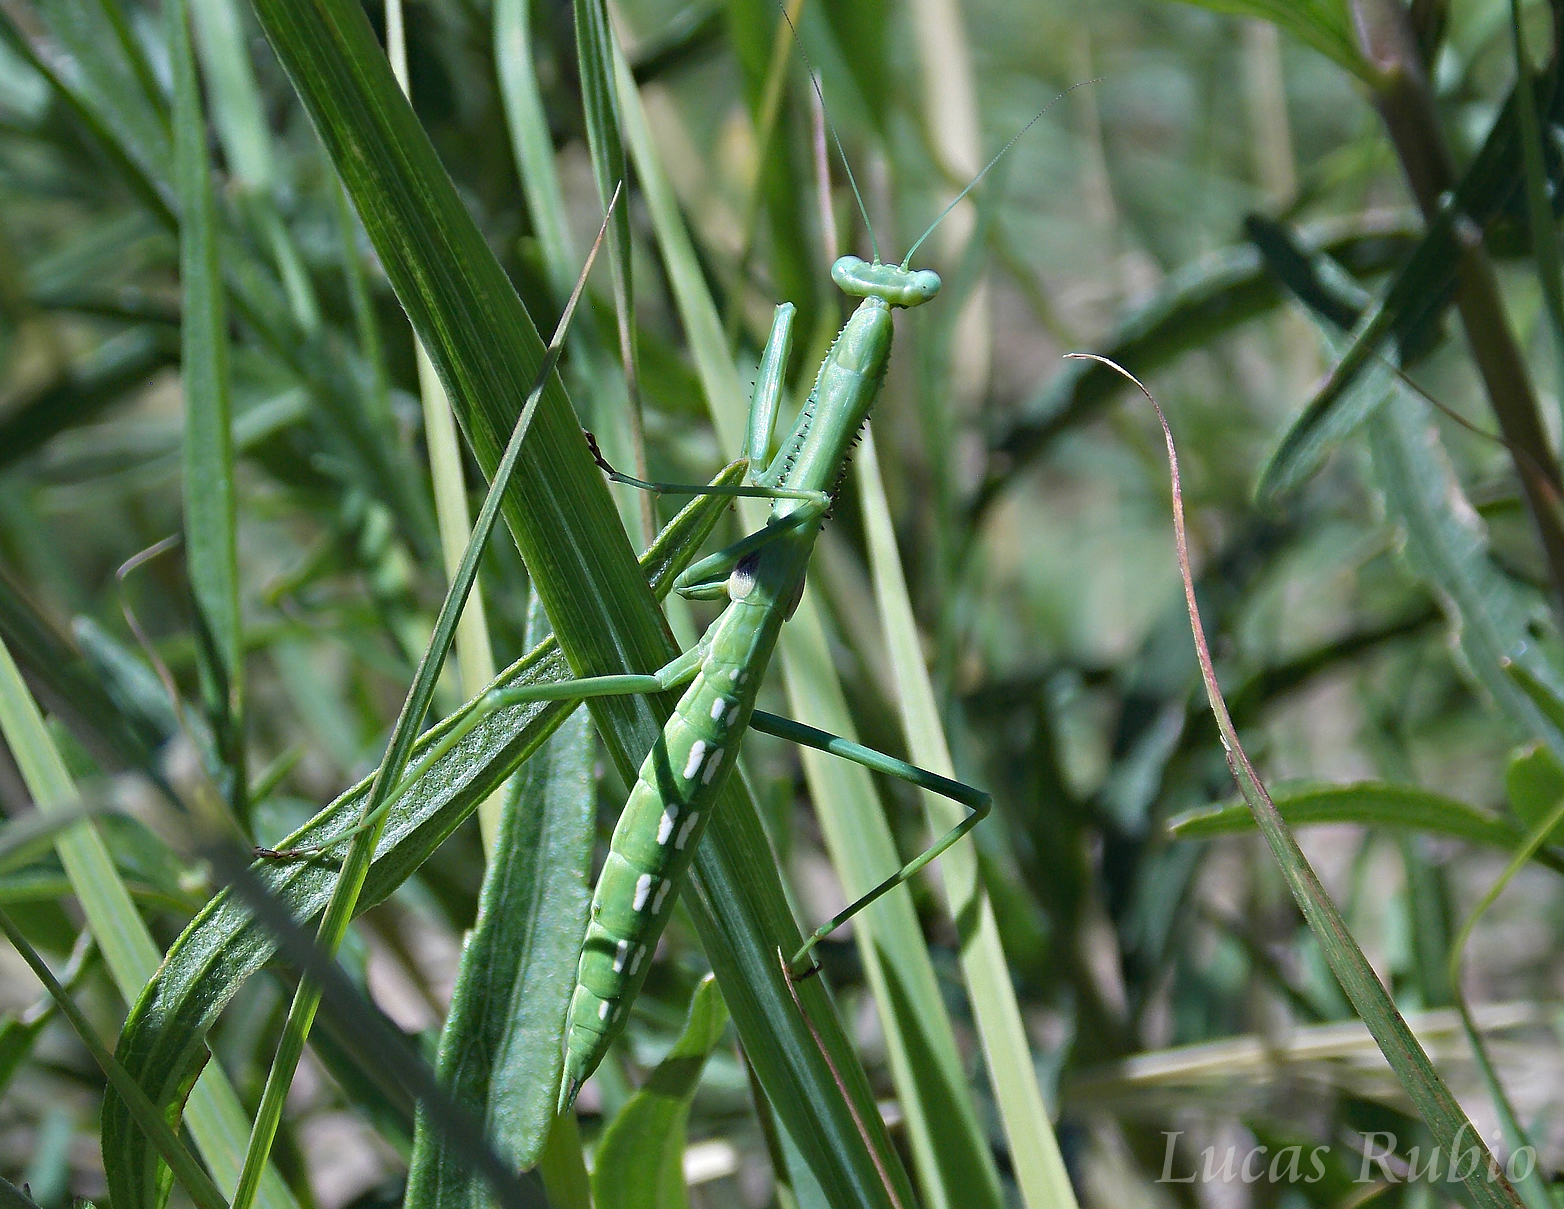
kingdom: Animalia
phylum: Arthropoda
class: Insecta
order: Mantodea
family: Coptopterygidae
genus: Coptopteryx
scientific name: Coptopteryx gayi
